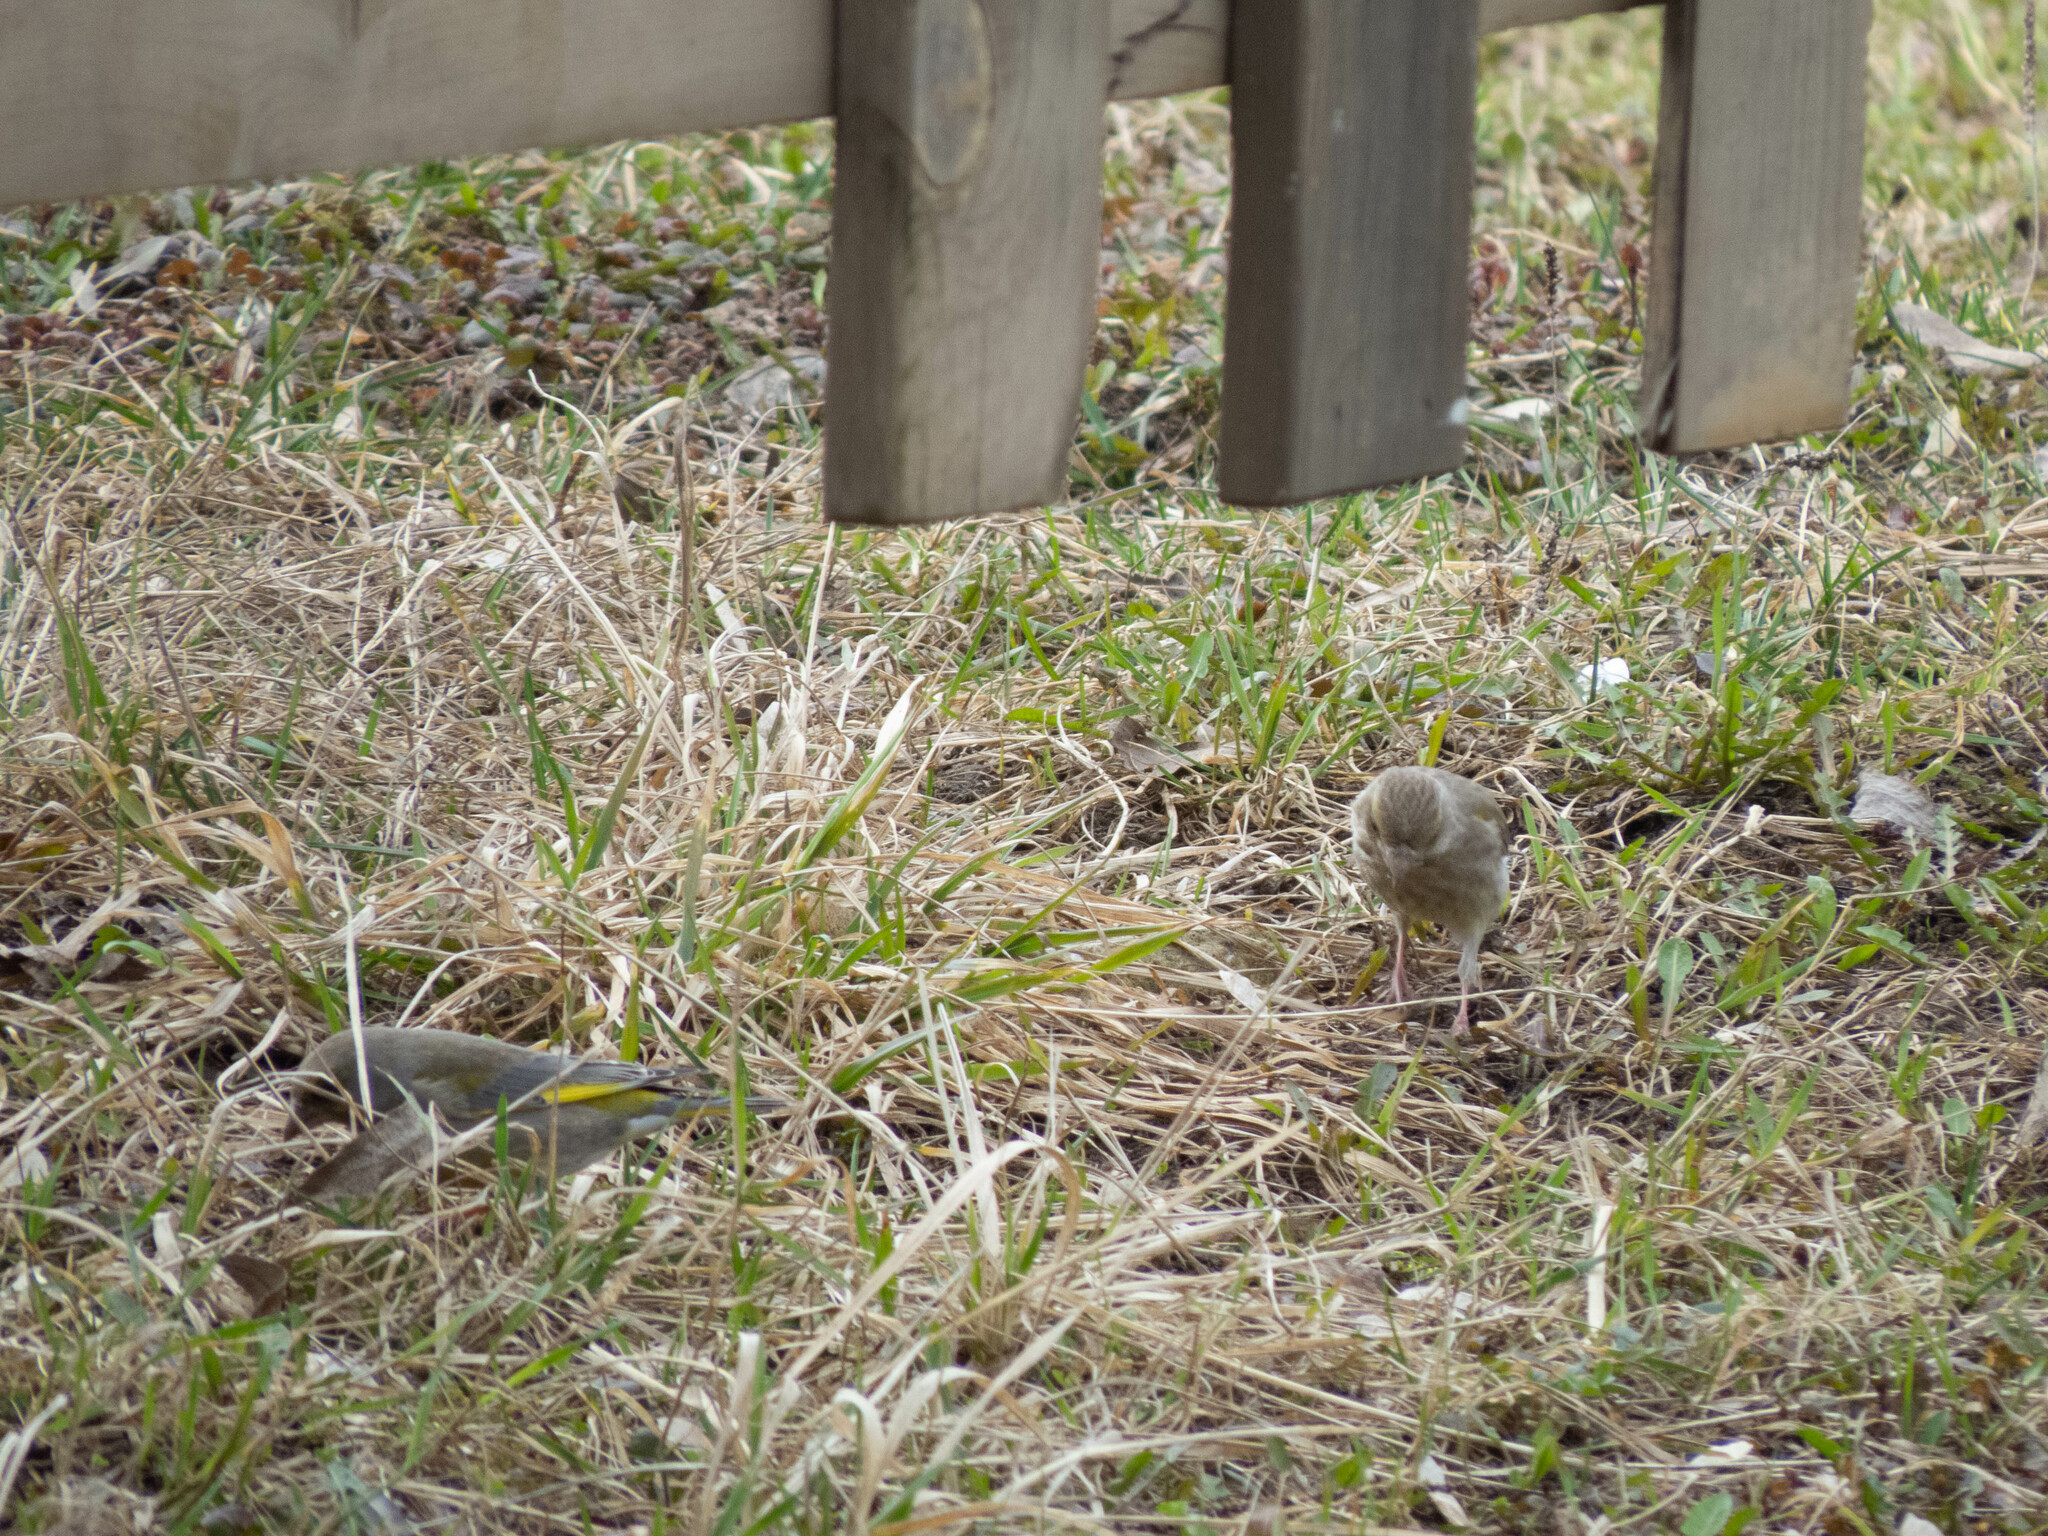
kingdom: Plantae
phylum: Tracheophyta
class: Liliopsida
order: Poales
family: Poaceae
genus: Chloris
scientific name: Chloris chloris
